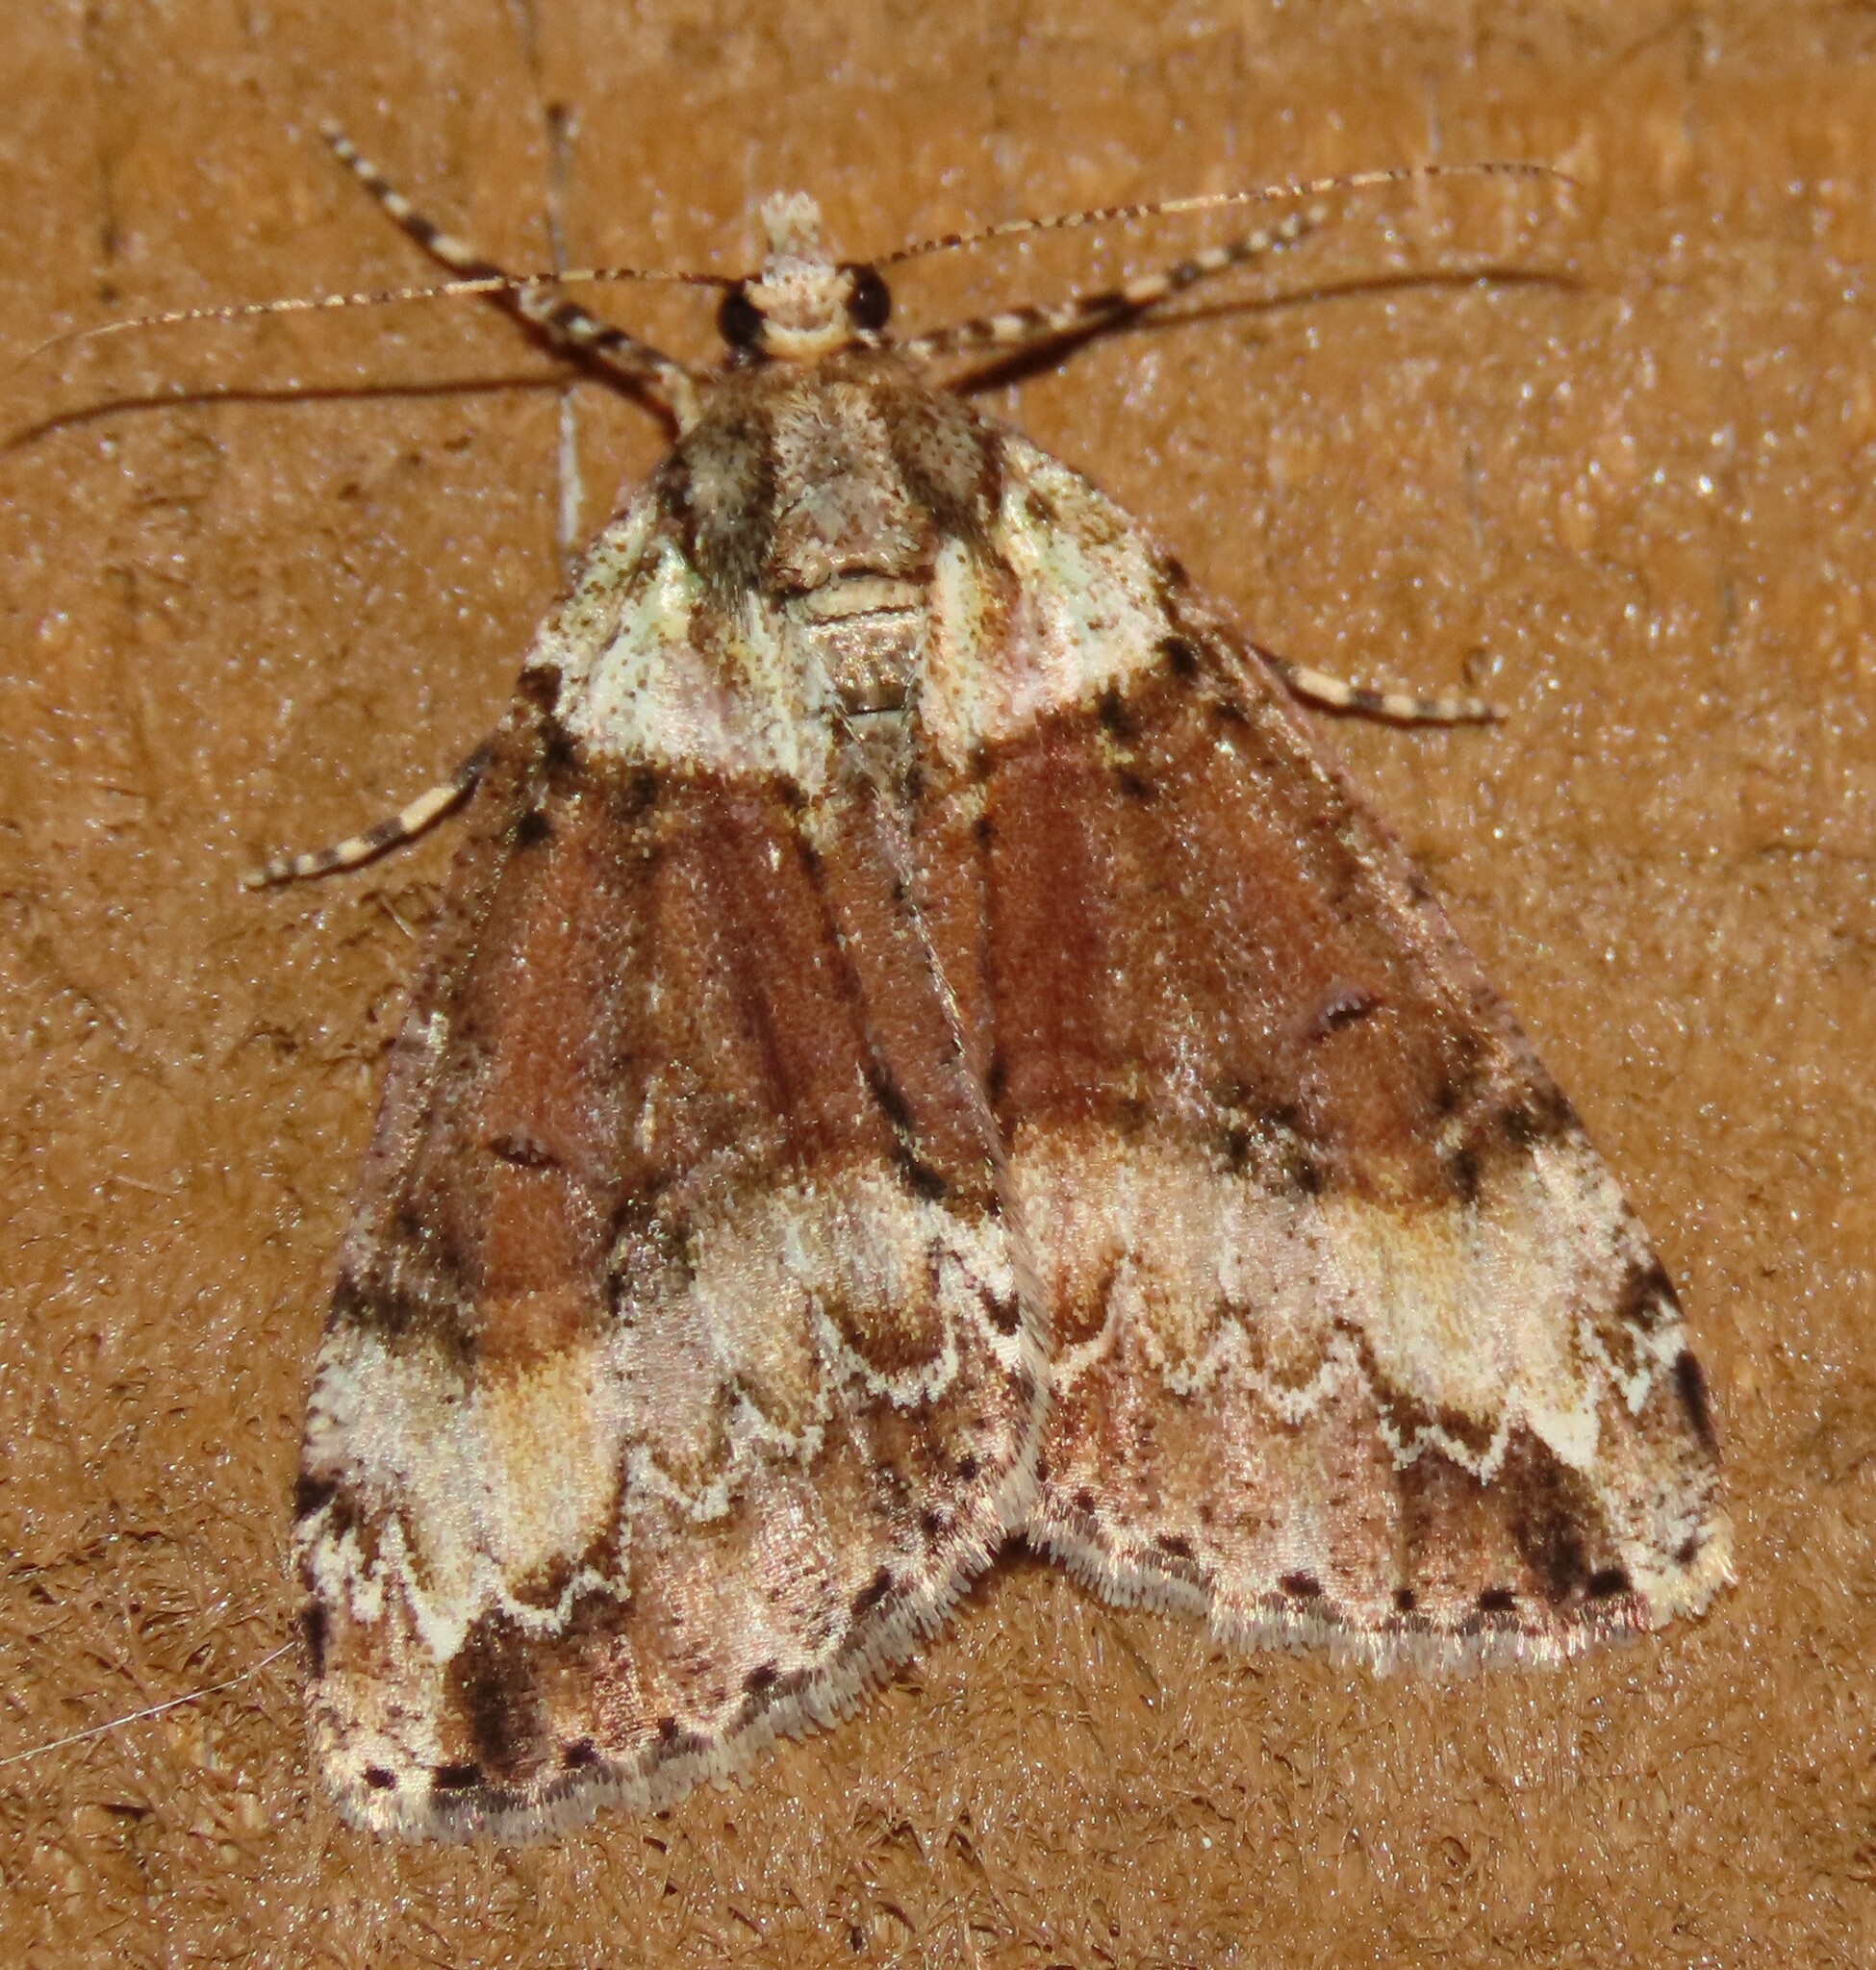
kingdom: Animalia
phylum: Arthropoda
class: Insecta
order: Lepidoptera
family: Geometridae
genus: Pseudocoremia
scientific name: Pseudocoremia suavis
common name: Common forest looper
